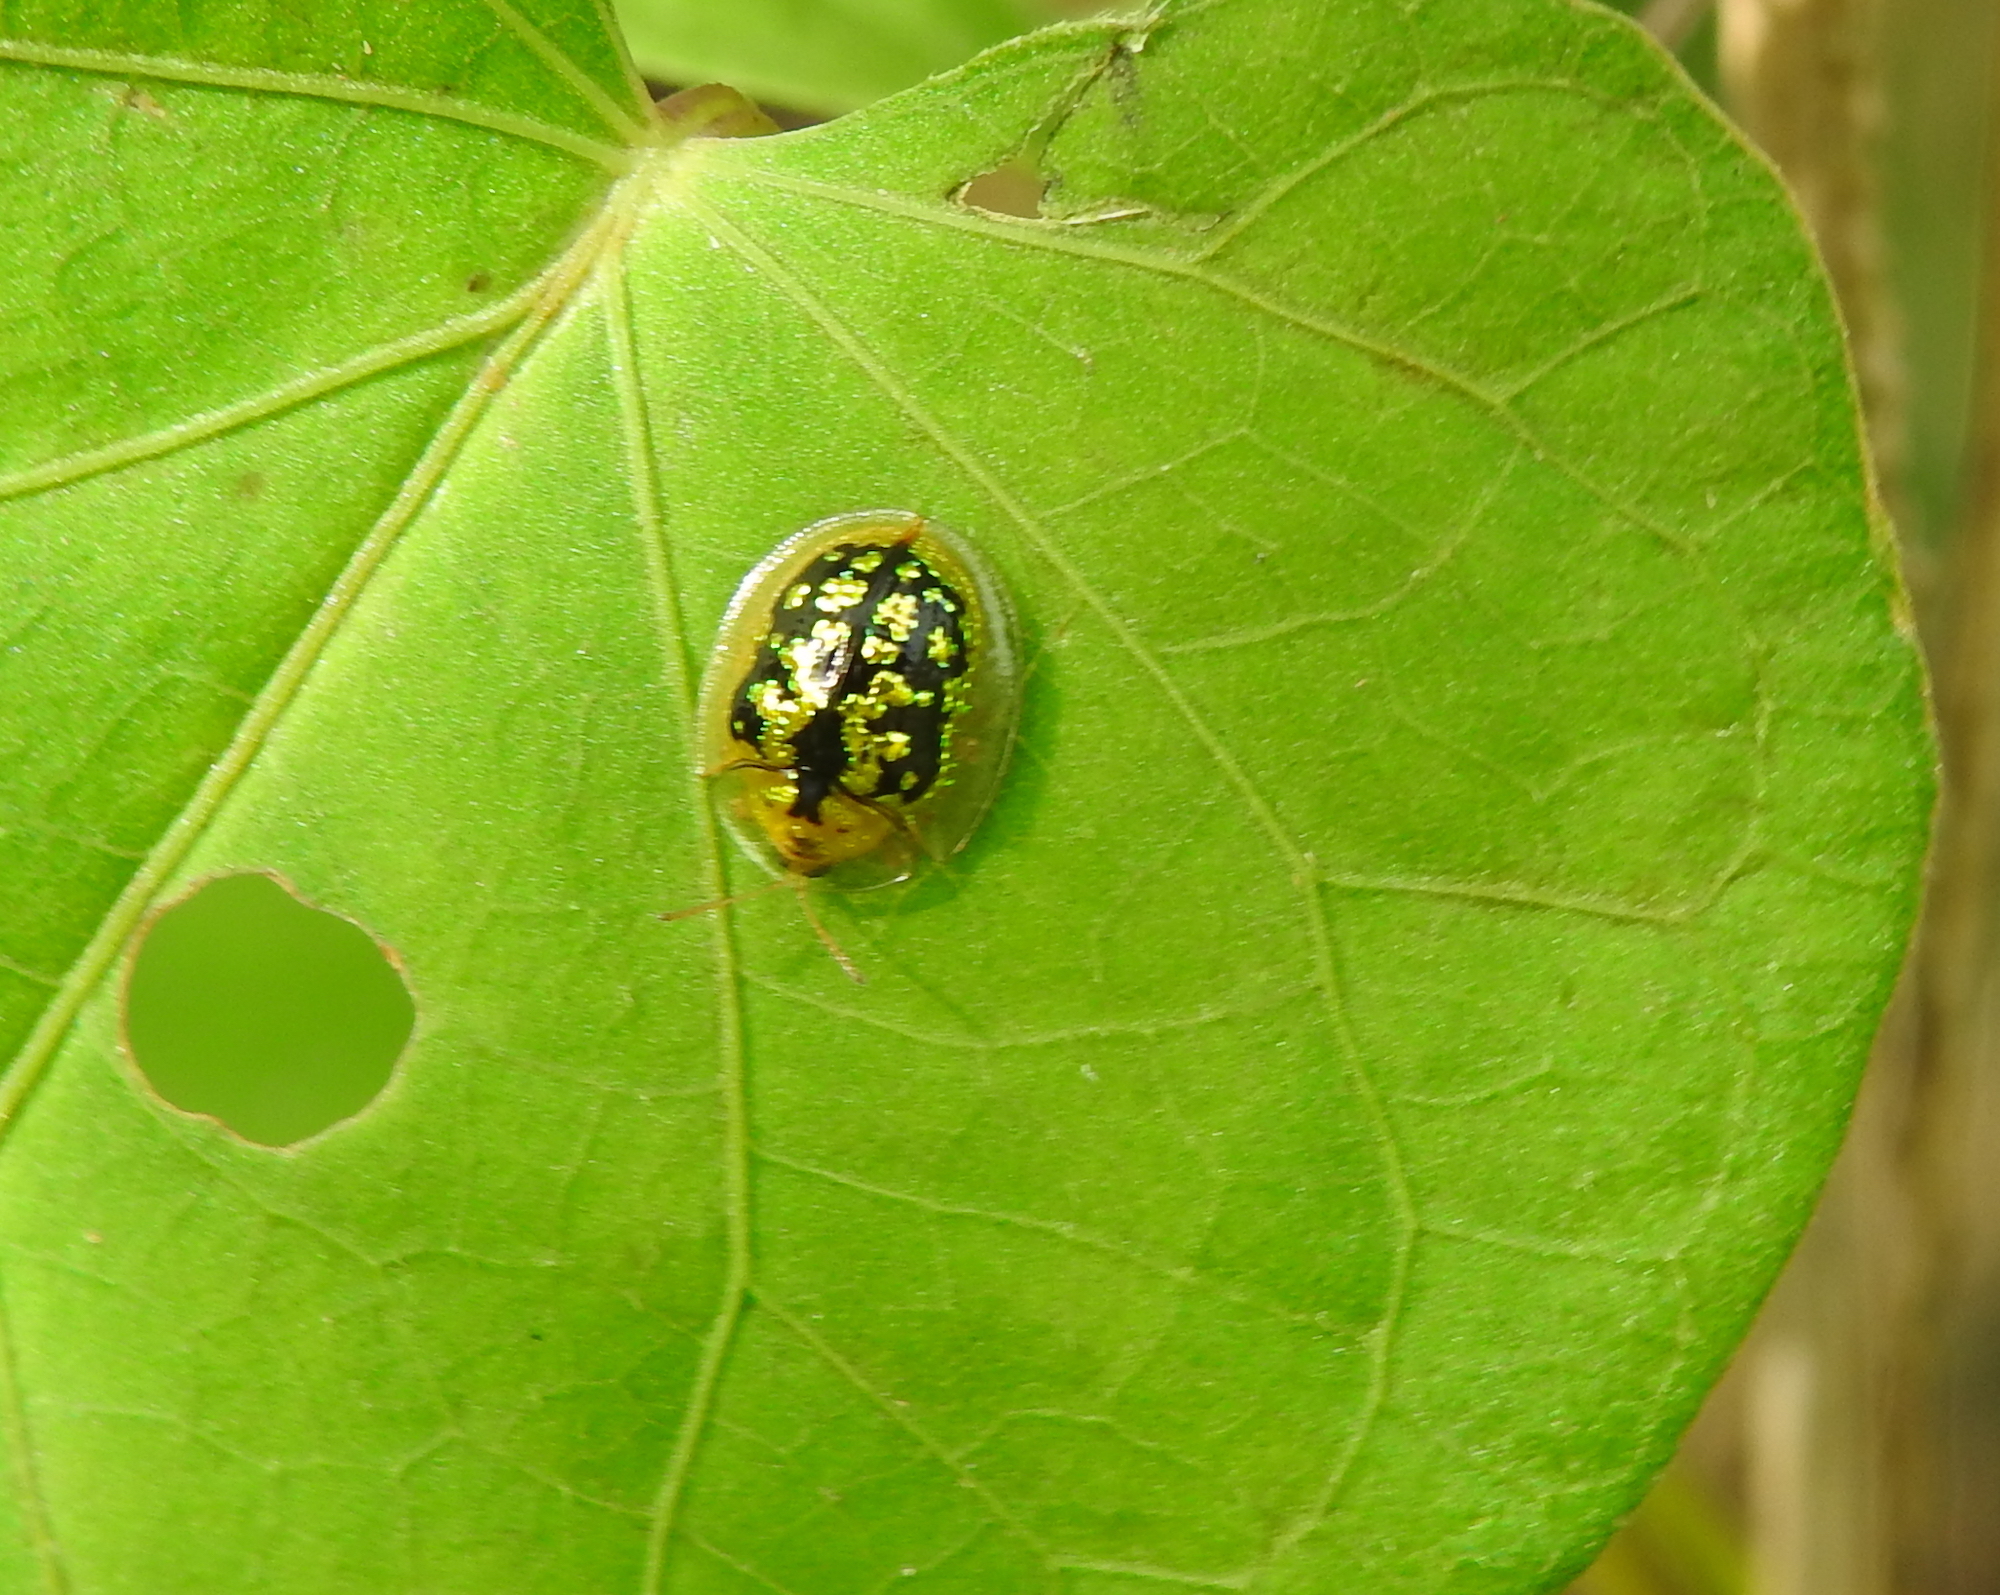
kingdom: Animalia
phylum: Arthropoda
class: Insecta
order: Coleoptera
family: Chrysomelidae
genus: Cassida
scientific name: Cassida circumdata
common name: Tortoise beetle
